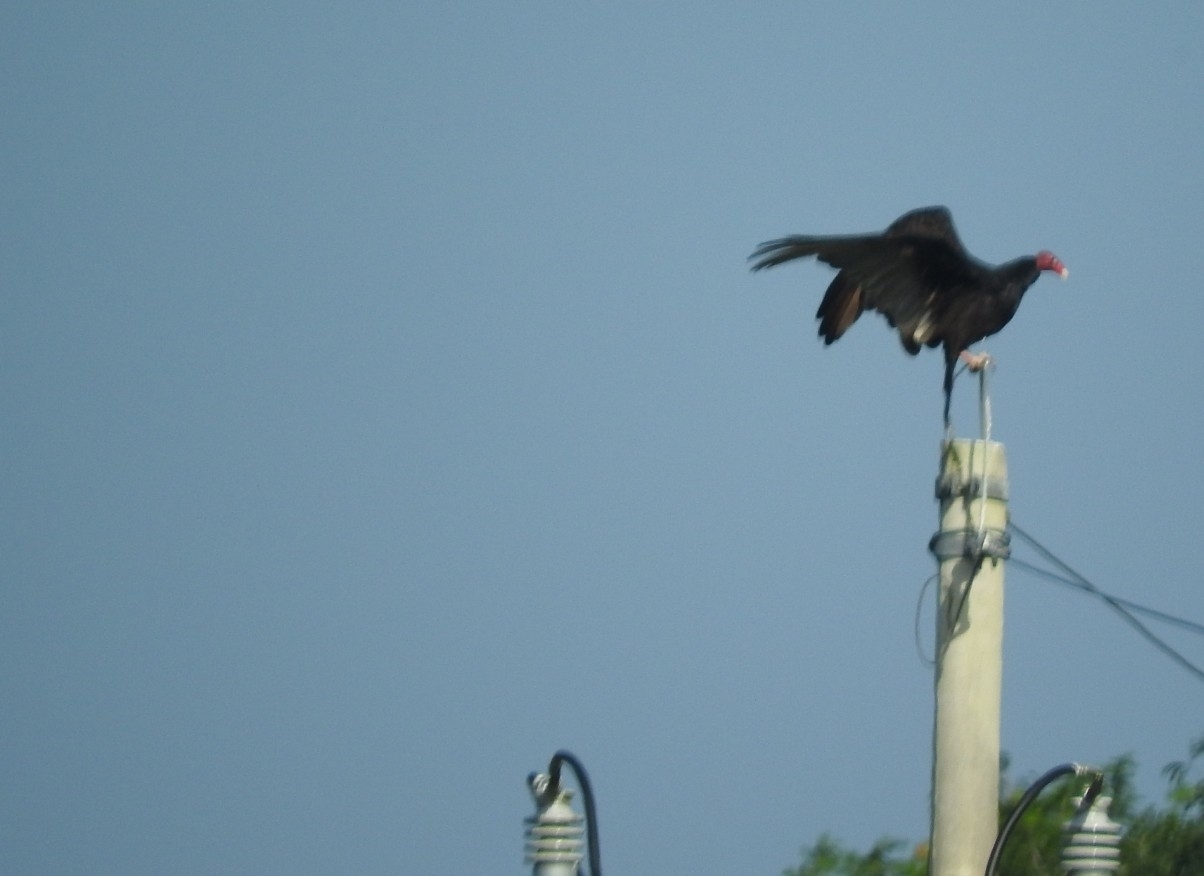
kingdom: Animalia
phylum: Chordata
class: Aves
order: Accipitriformes
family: Cathartidae
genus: Cathartes
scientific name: Cathartes aura
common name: Turkey vulture
